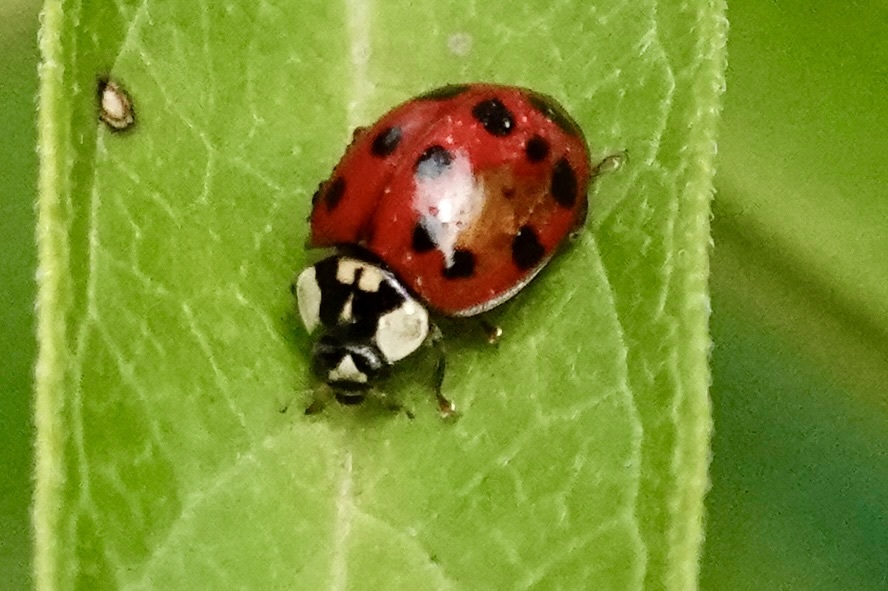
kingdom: Animalia
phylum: Arthropoda
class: Insecta
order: Coleoptera
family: Coccinellidae
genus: Harmonia
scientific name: Harmonia axyridis
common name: Harlequin ladybird
